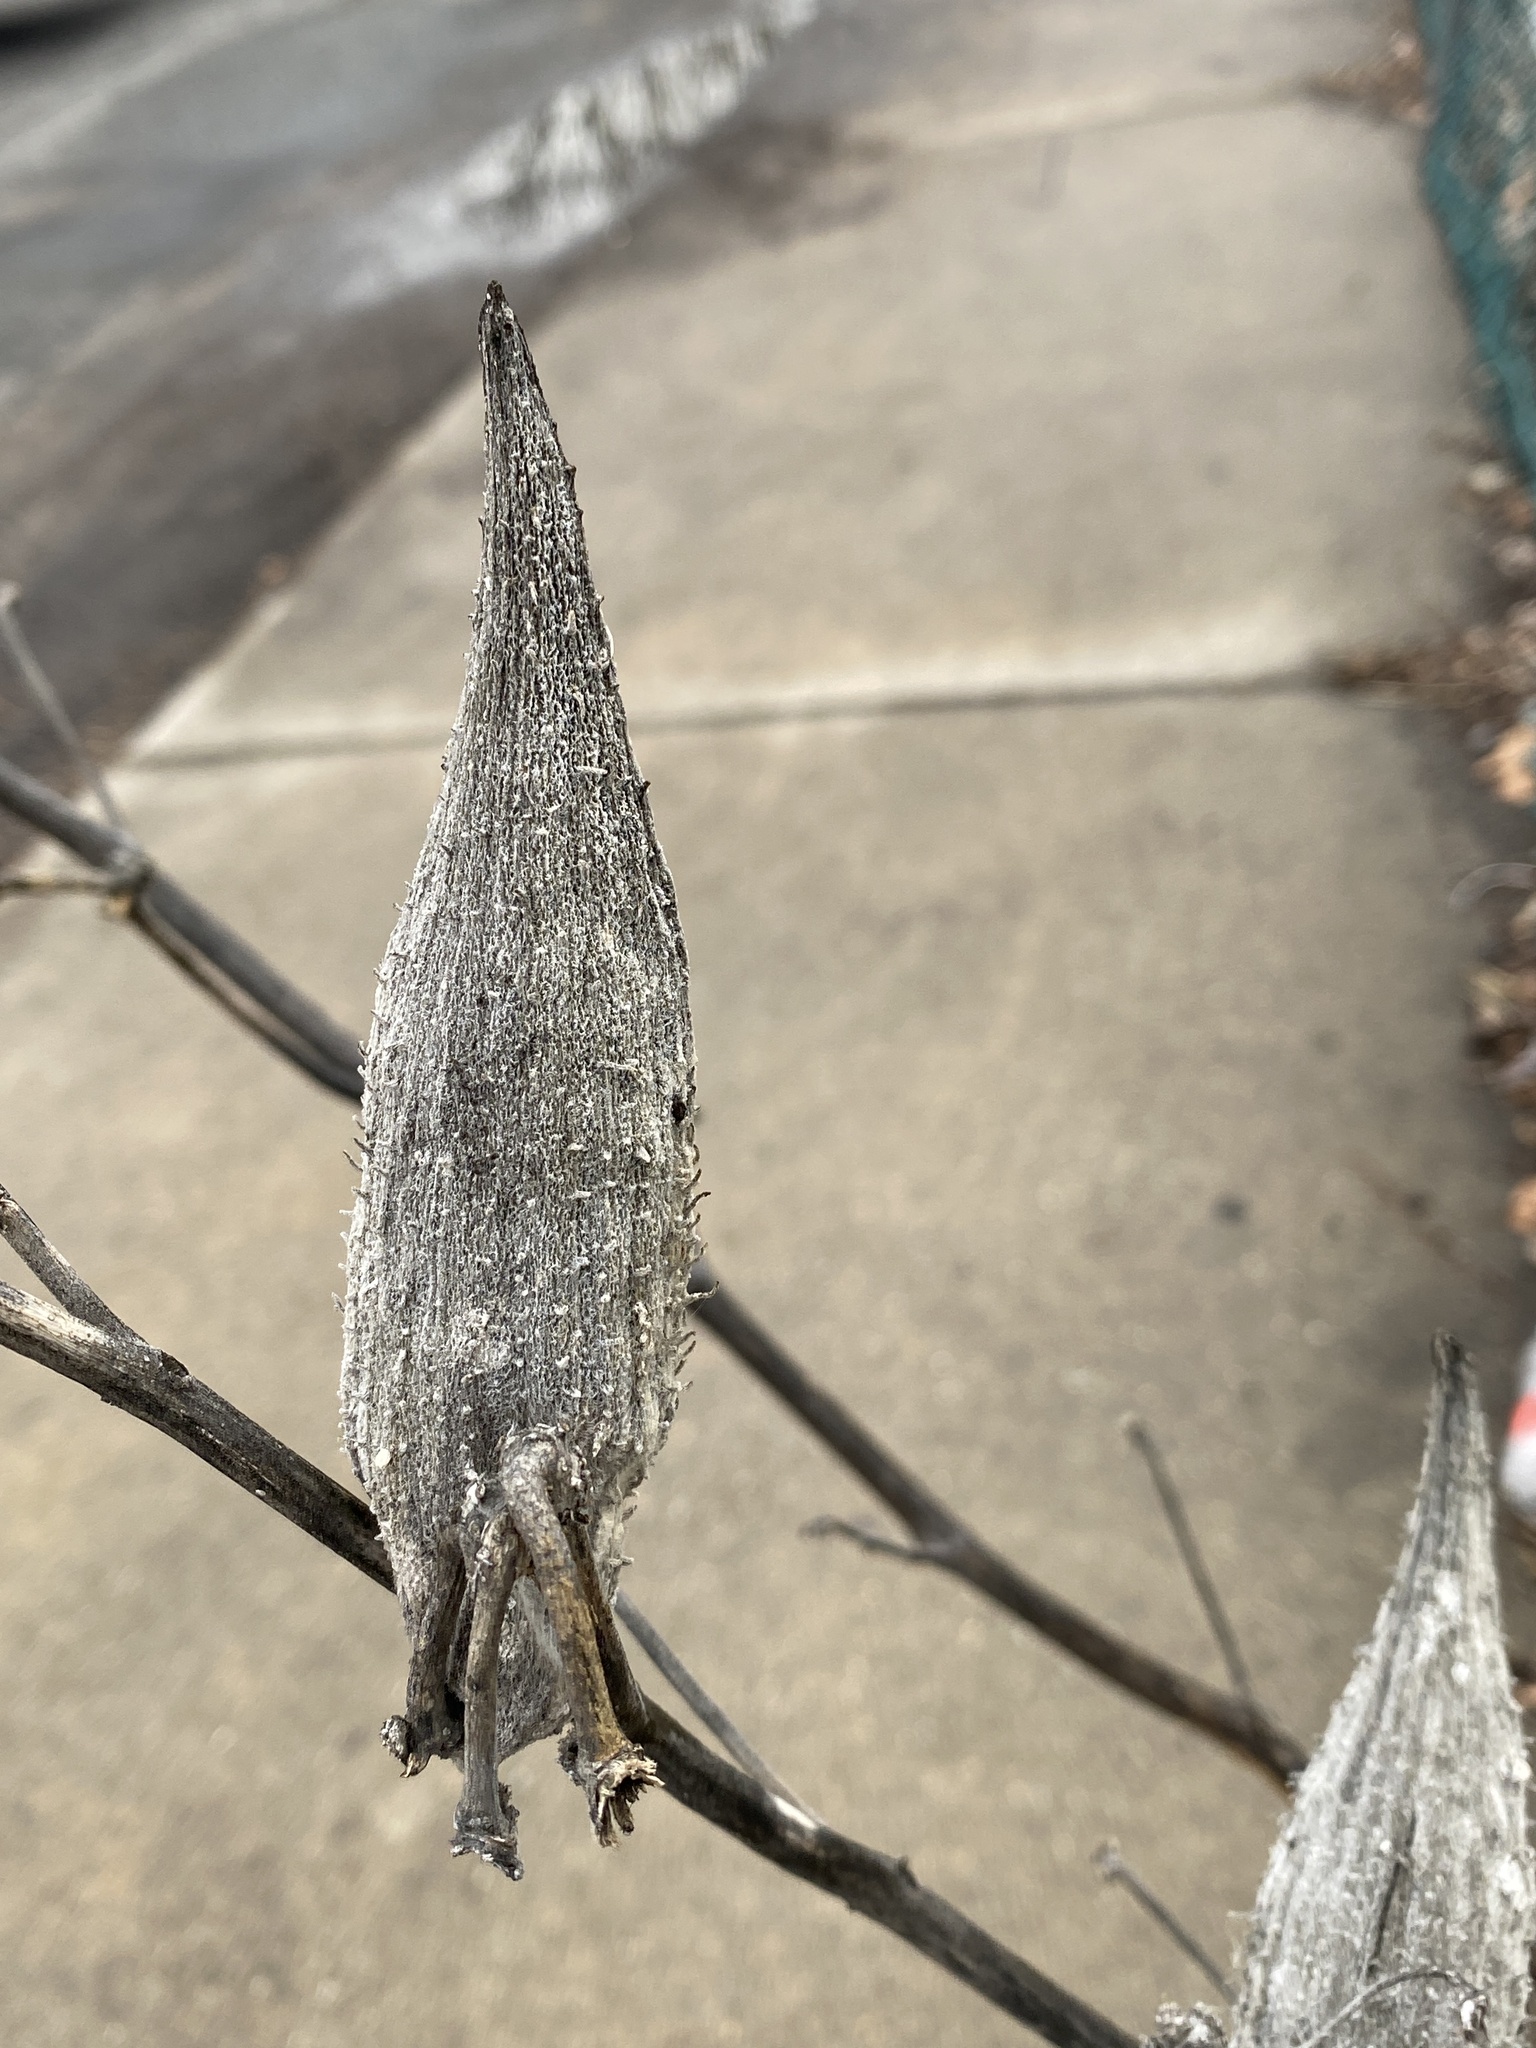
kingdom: Plantae
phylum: Tracheophyta
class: Magnoliopsida
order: Gentianales
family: Apocynaceae
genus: Asclepias
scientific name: Asclepias syriaca
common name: Common milkweed
